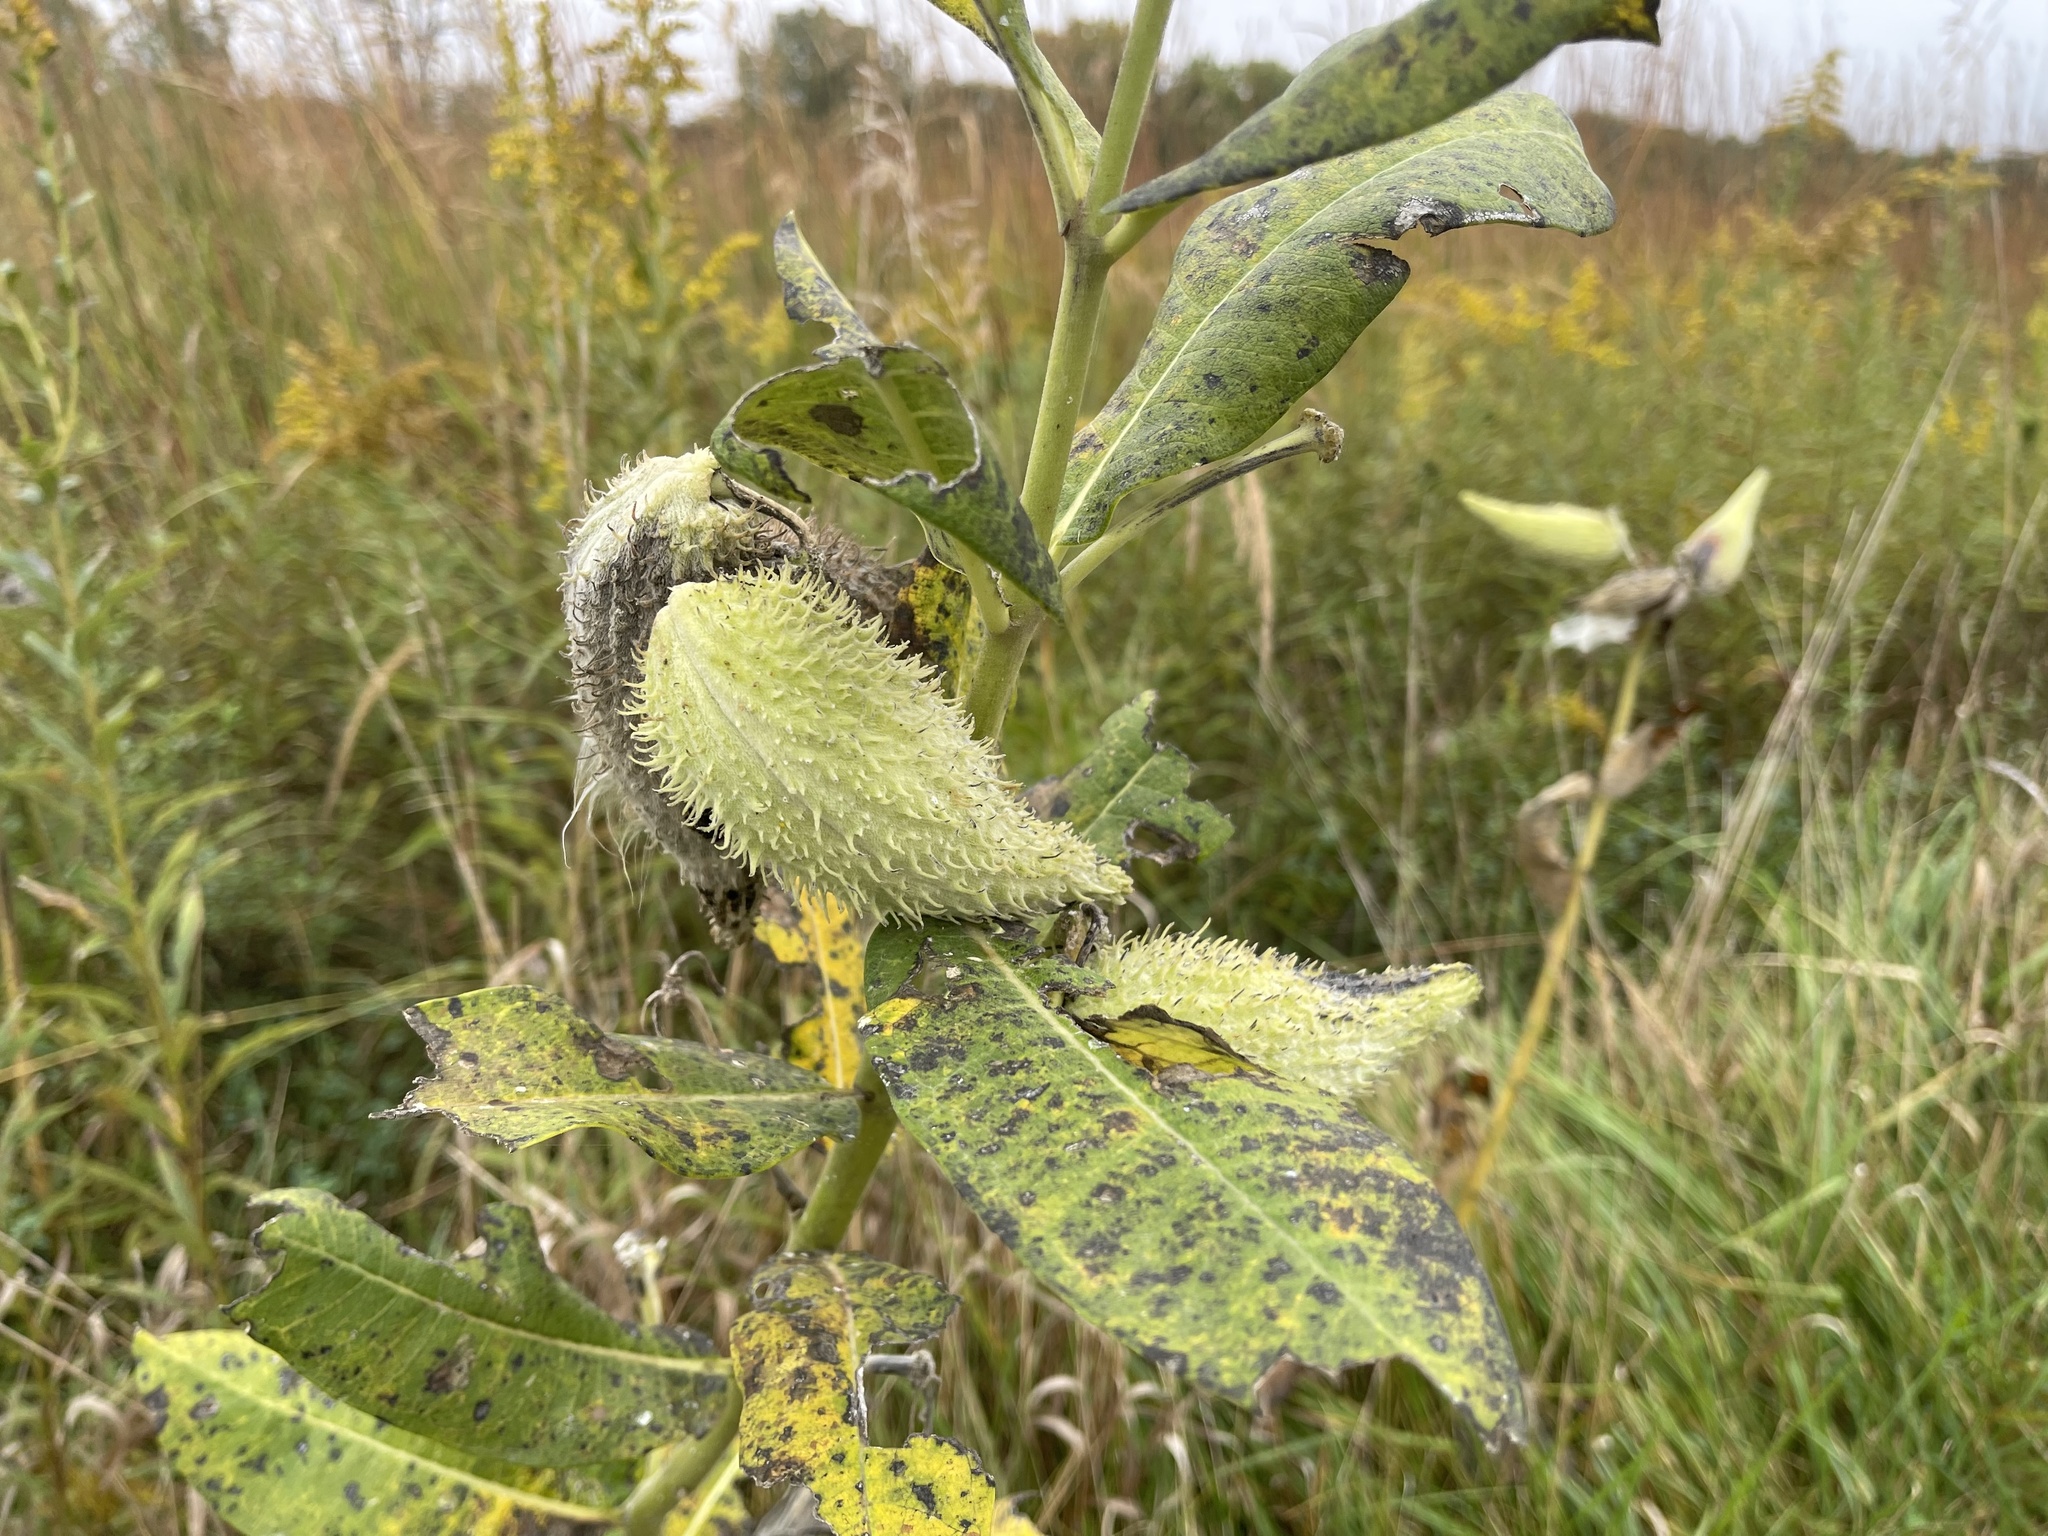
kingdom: Plantae
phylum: Tracheophyta
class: Magnoliopsida
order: Gentianales
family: Apocynaceae
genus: Asclepias
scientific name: Asclepias syriaca
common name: Common milkweed
